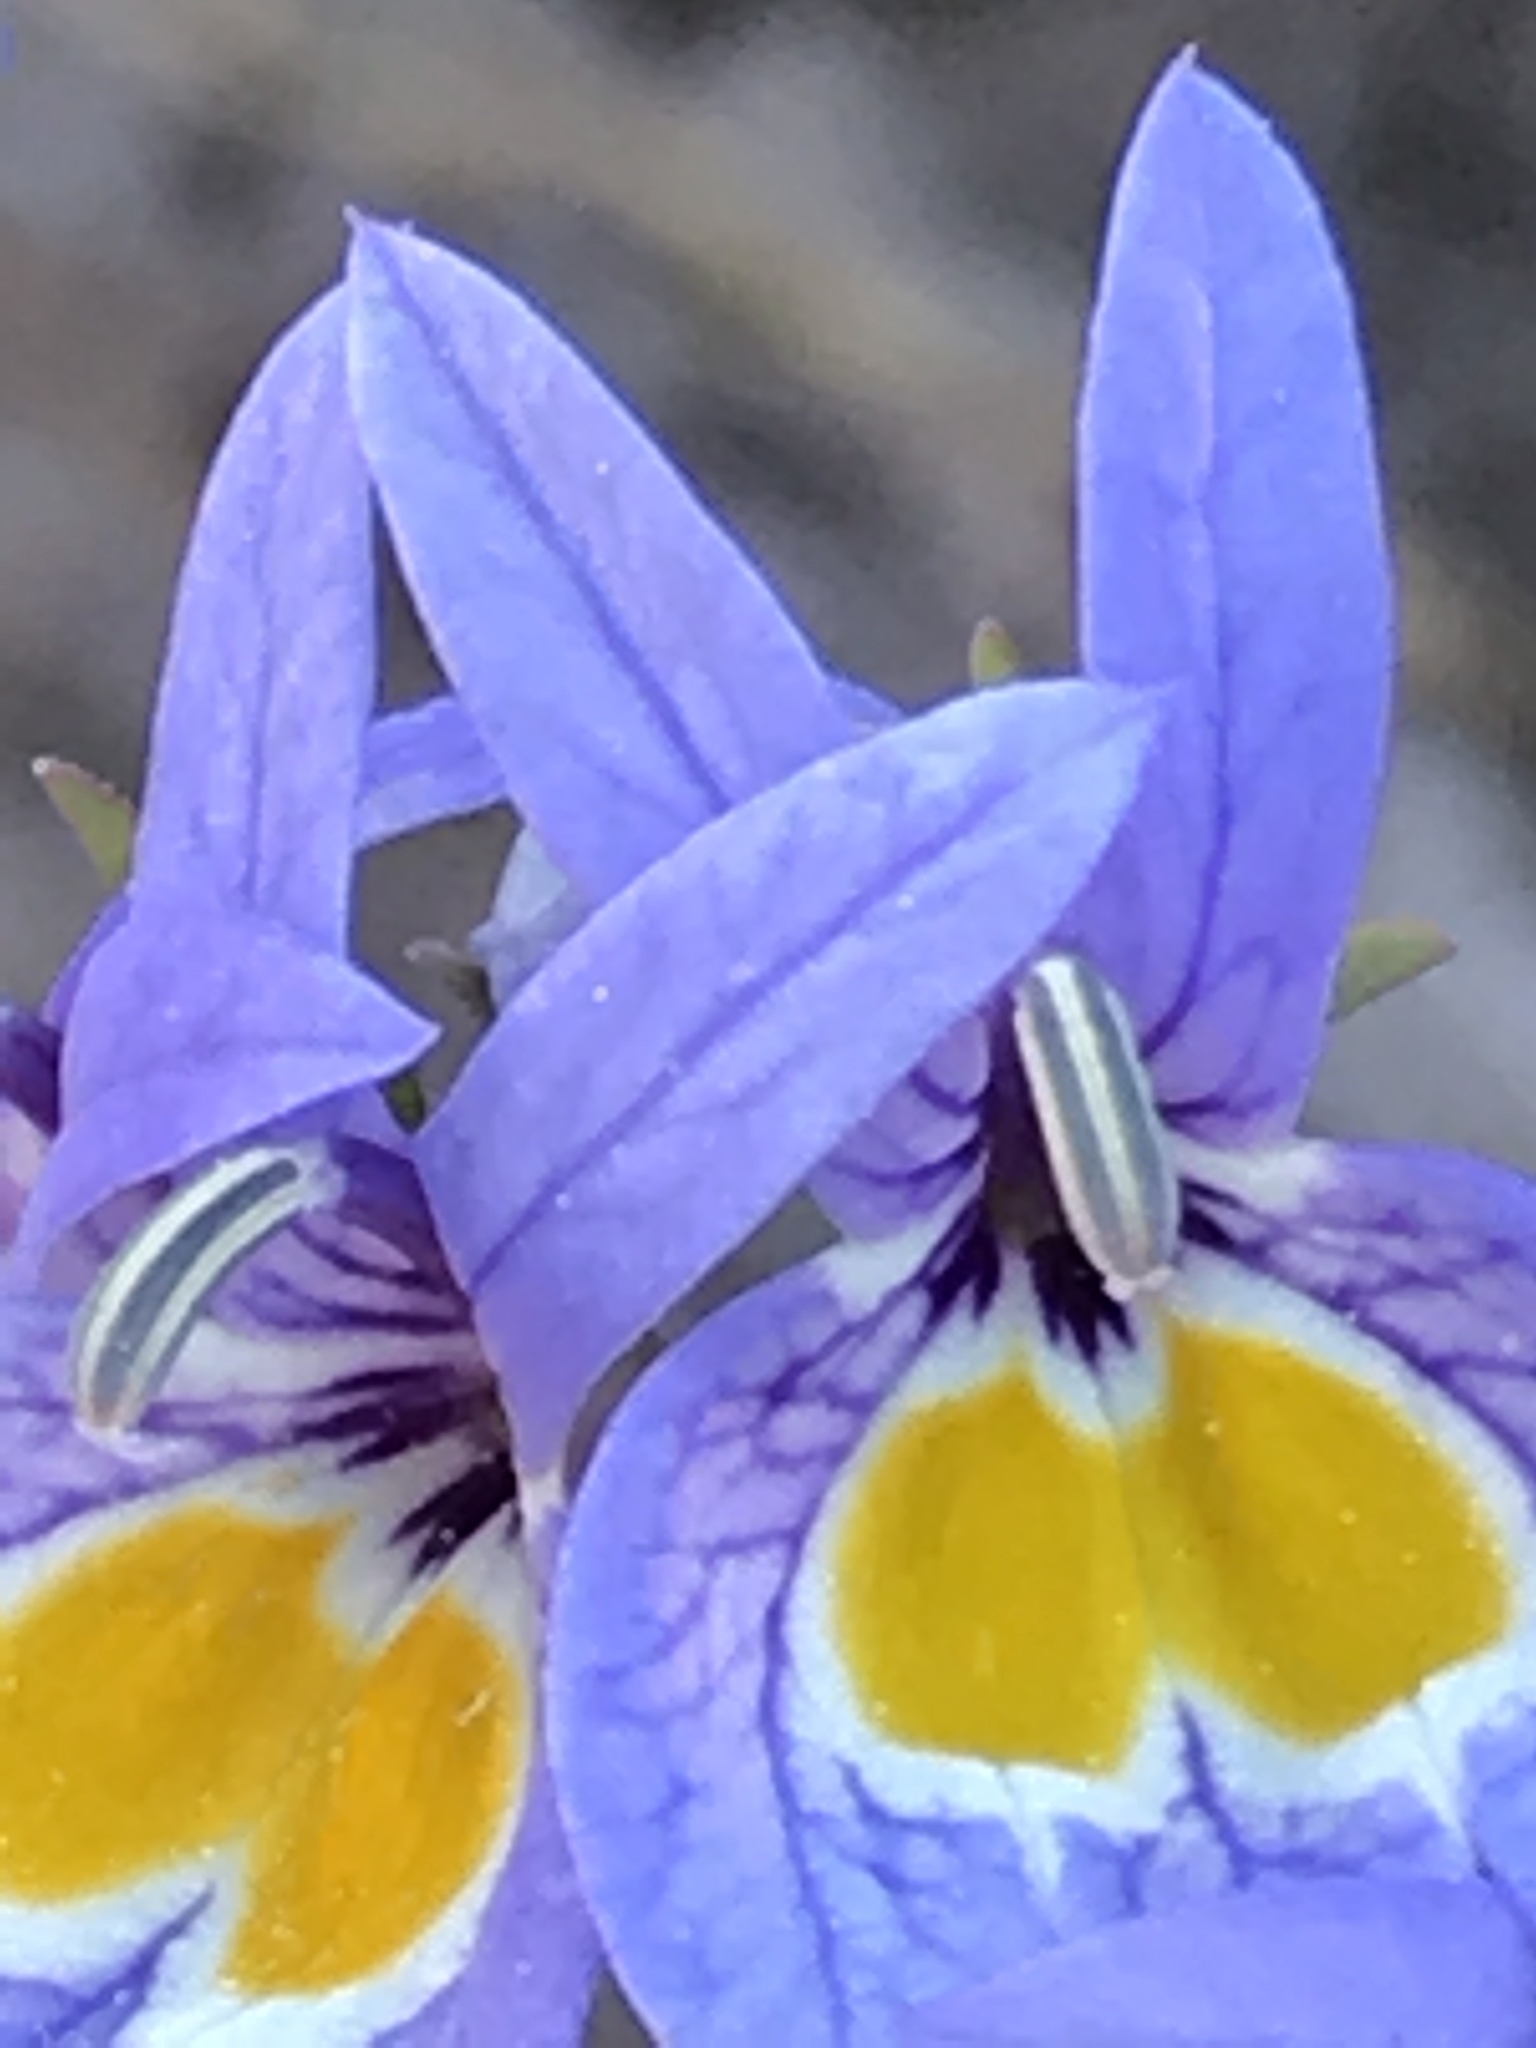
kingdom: Plantae
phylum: Tracheophyta
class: Magnoliopsida
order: Asterales
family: Campanulaceae
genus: Downingia
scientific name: Downingia bacigalupii
